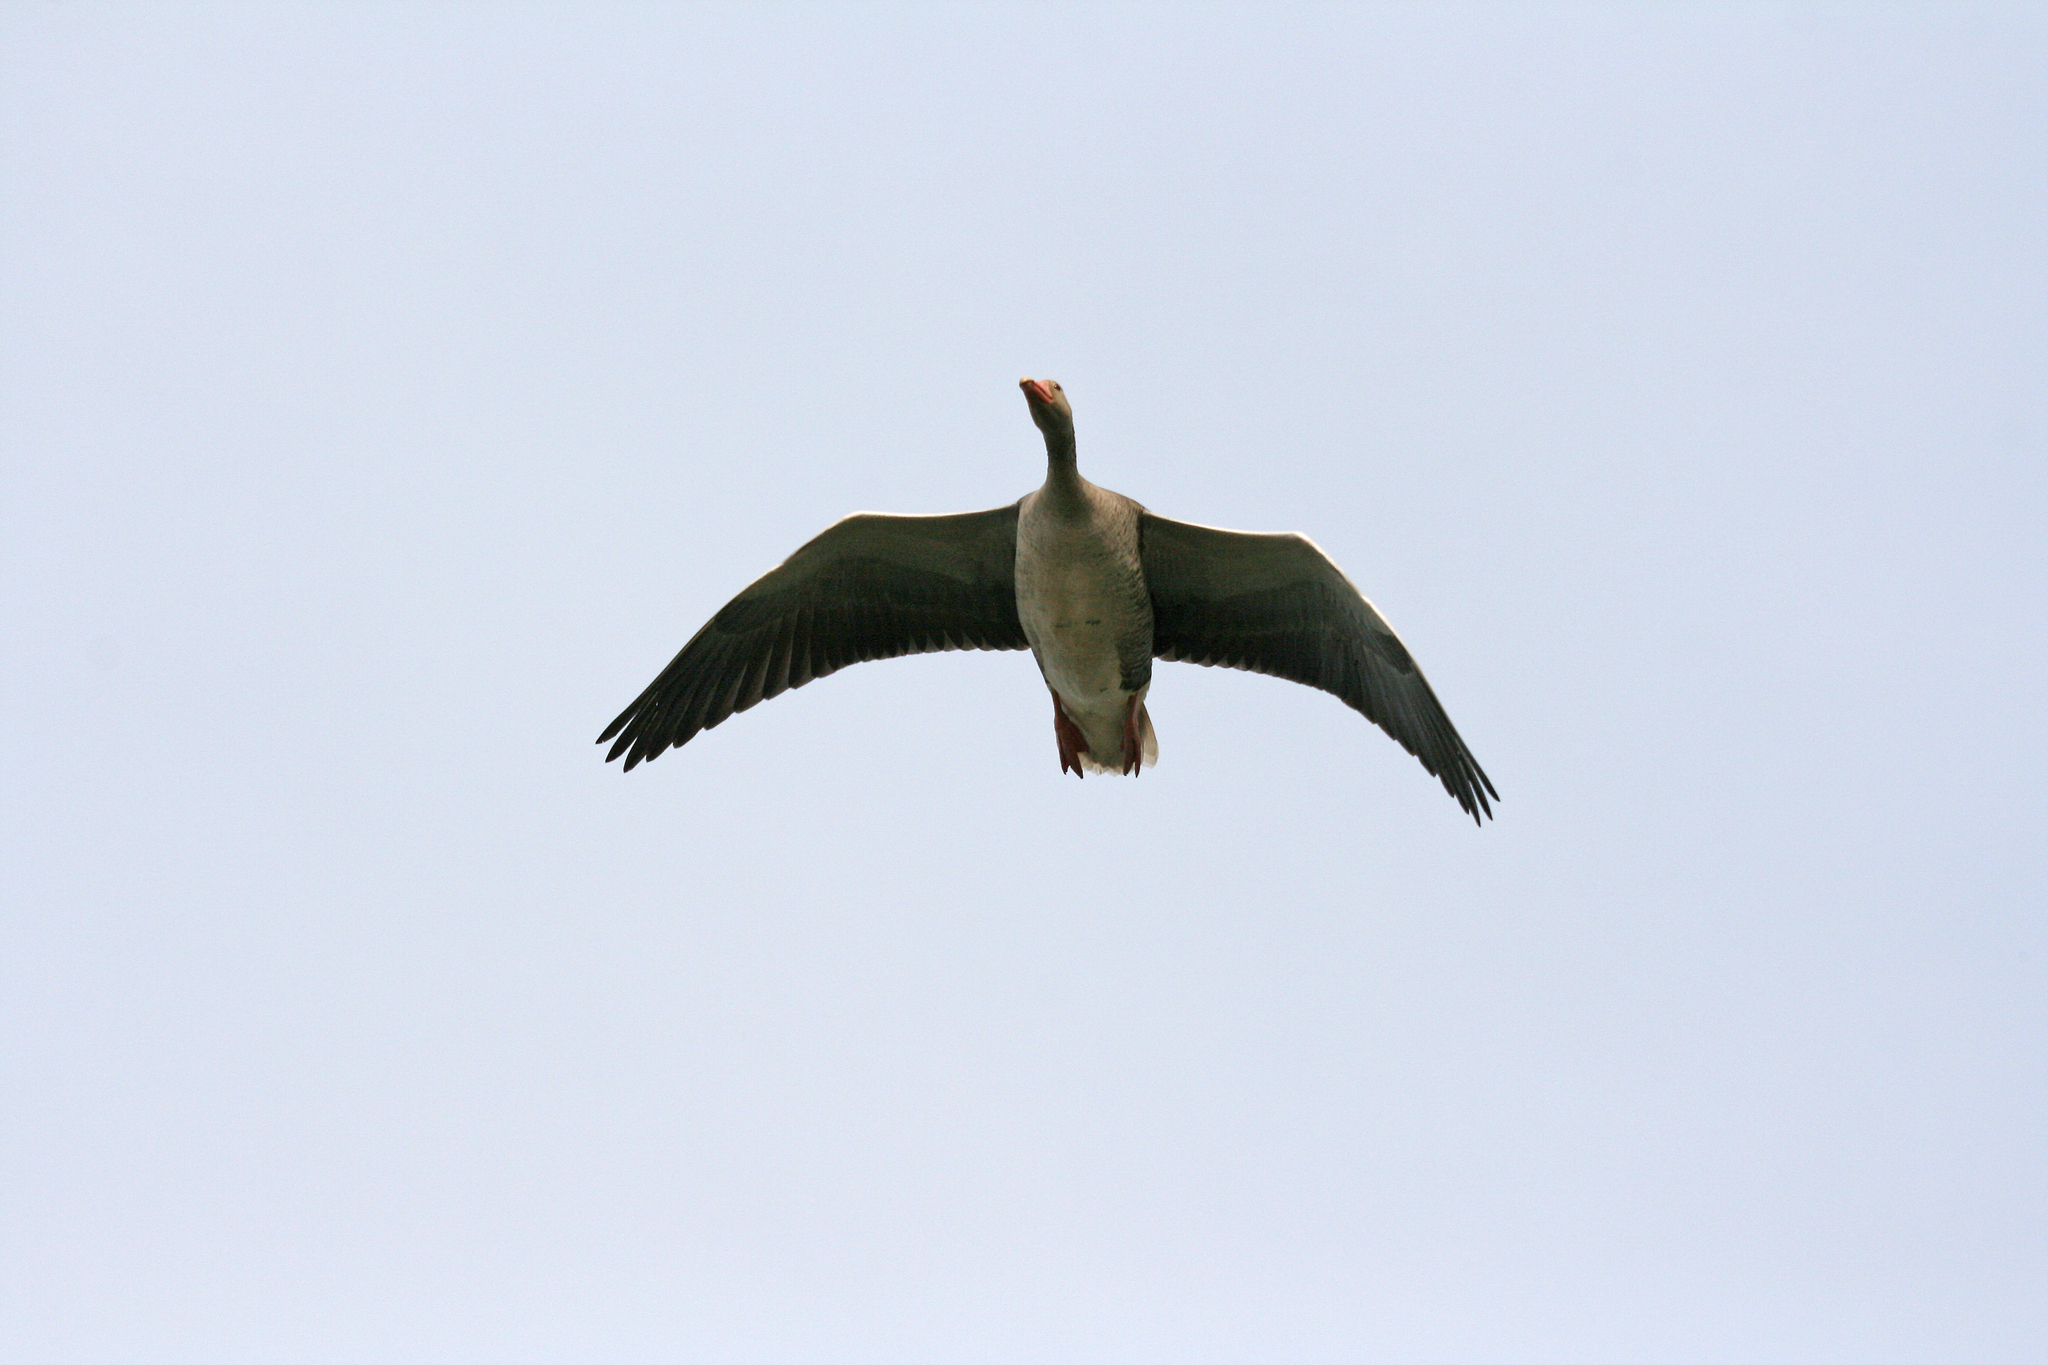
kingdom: Animalia
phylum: Chordata
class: Aves
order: Anseriformes
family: Anatidae
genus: Anser
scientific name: Anser anser
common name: Greylag goose
